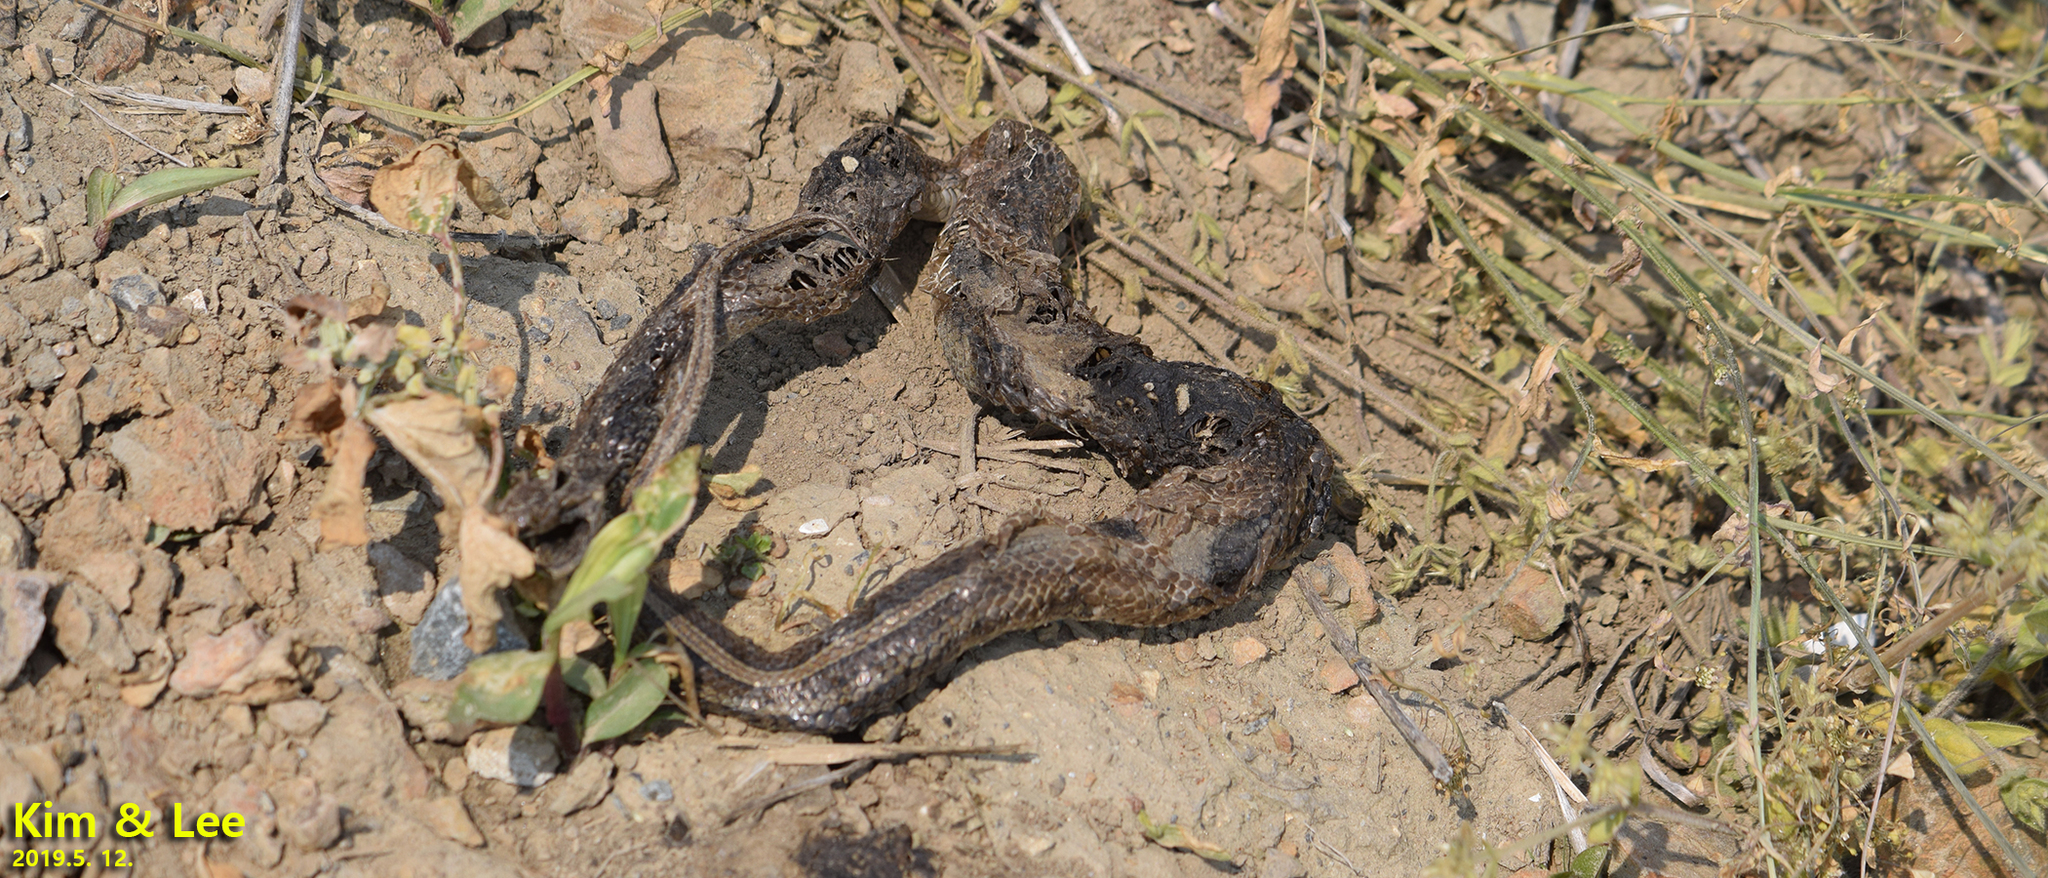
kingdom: Animalia
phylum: Chordata
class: Squamata
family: Colubridae
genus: Oocatochus
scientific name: Oocatochus rufodorsatus
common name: Frog-eating rat snake
